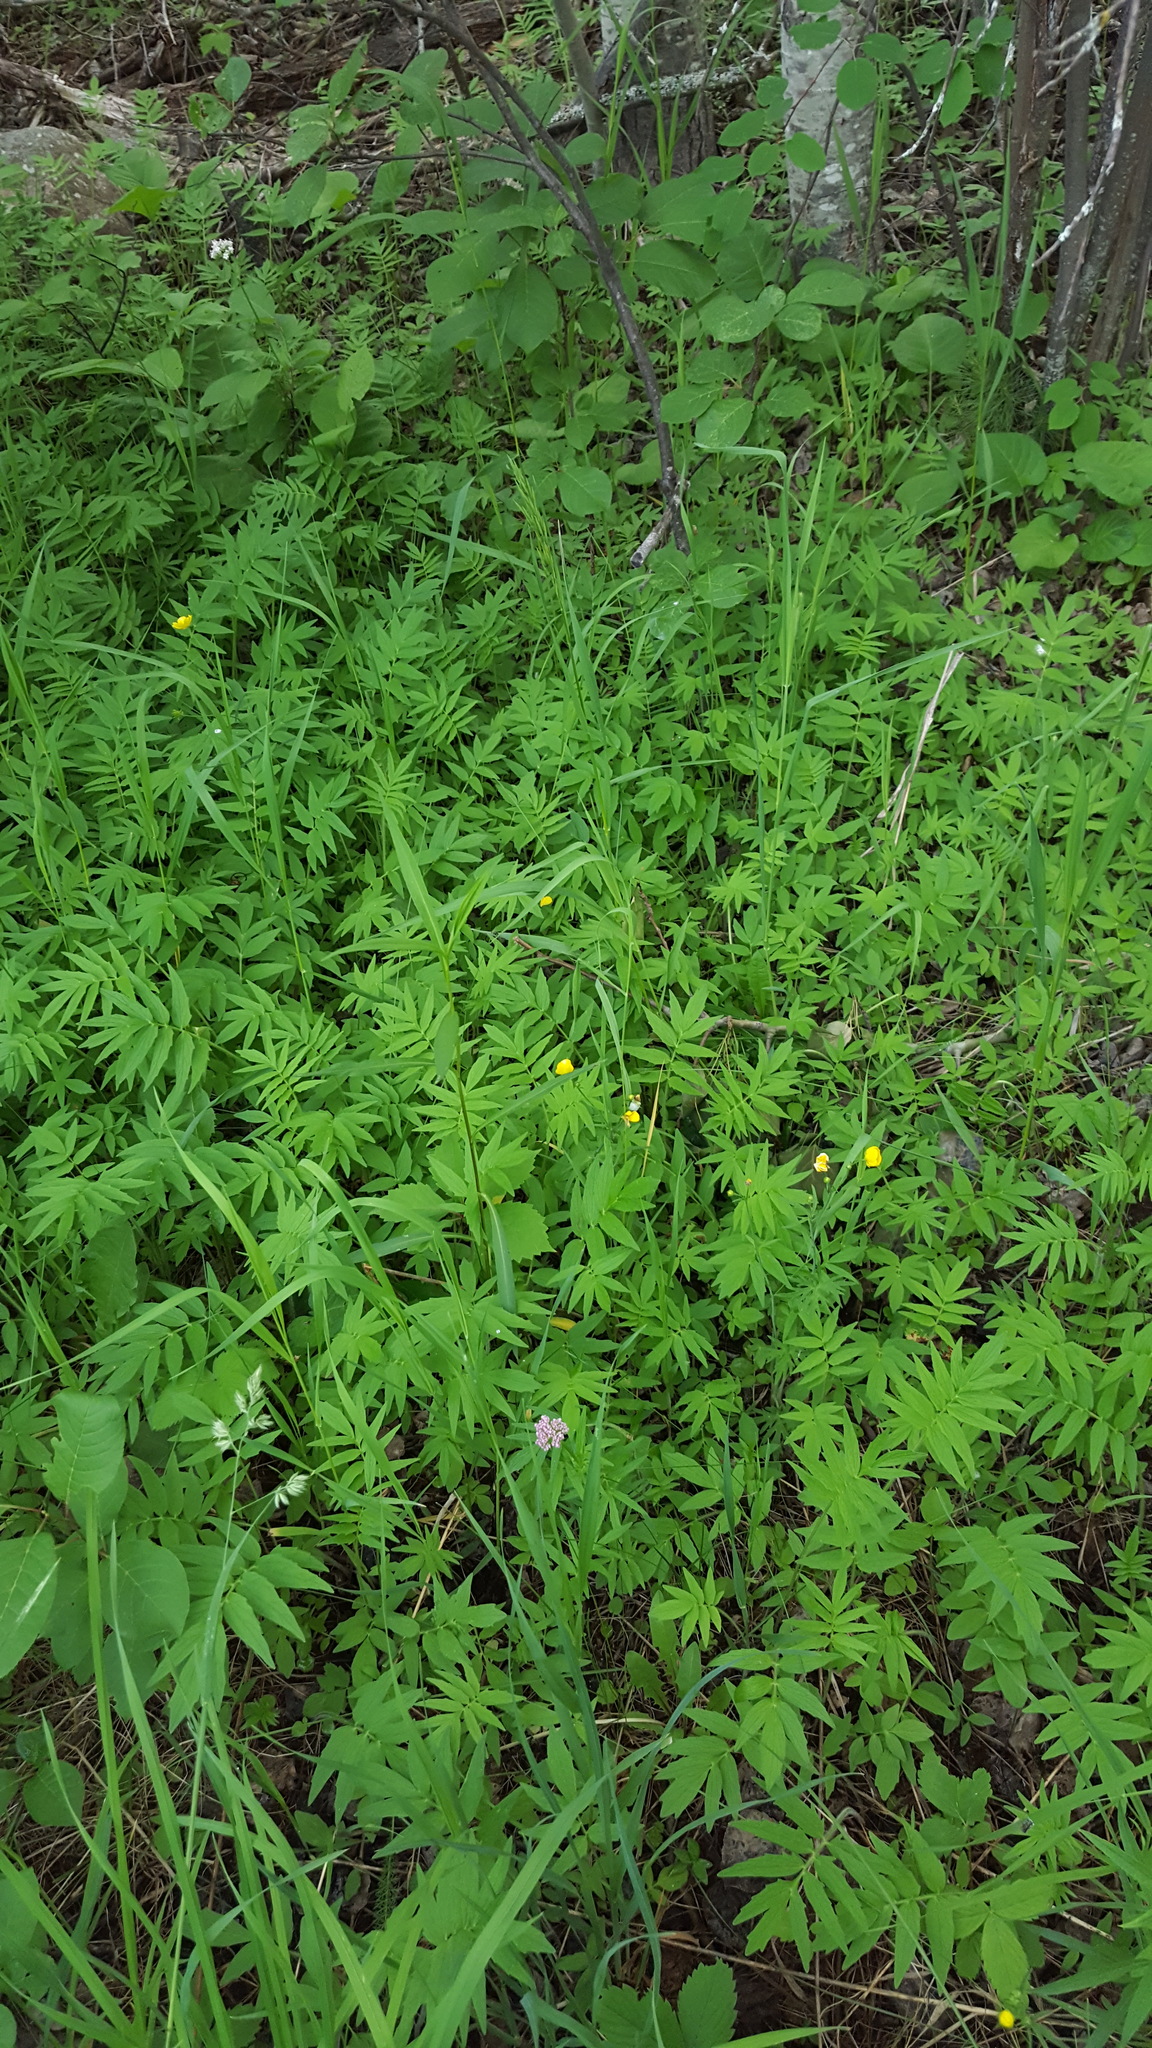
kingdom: Plantae
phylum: Tracheophyta
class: Magnoliopsida
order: Dipsacales
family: Caprifoliaceae
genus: Valeriana
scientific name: Valeriana officinalis
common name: Common valerian
